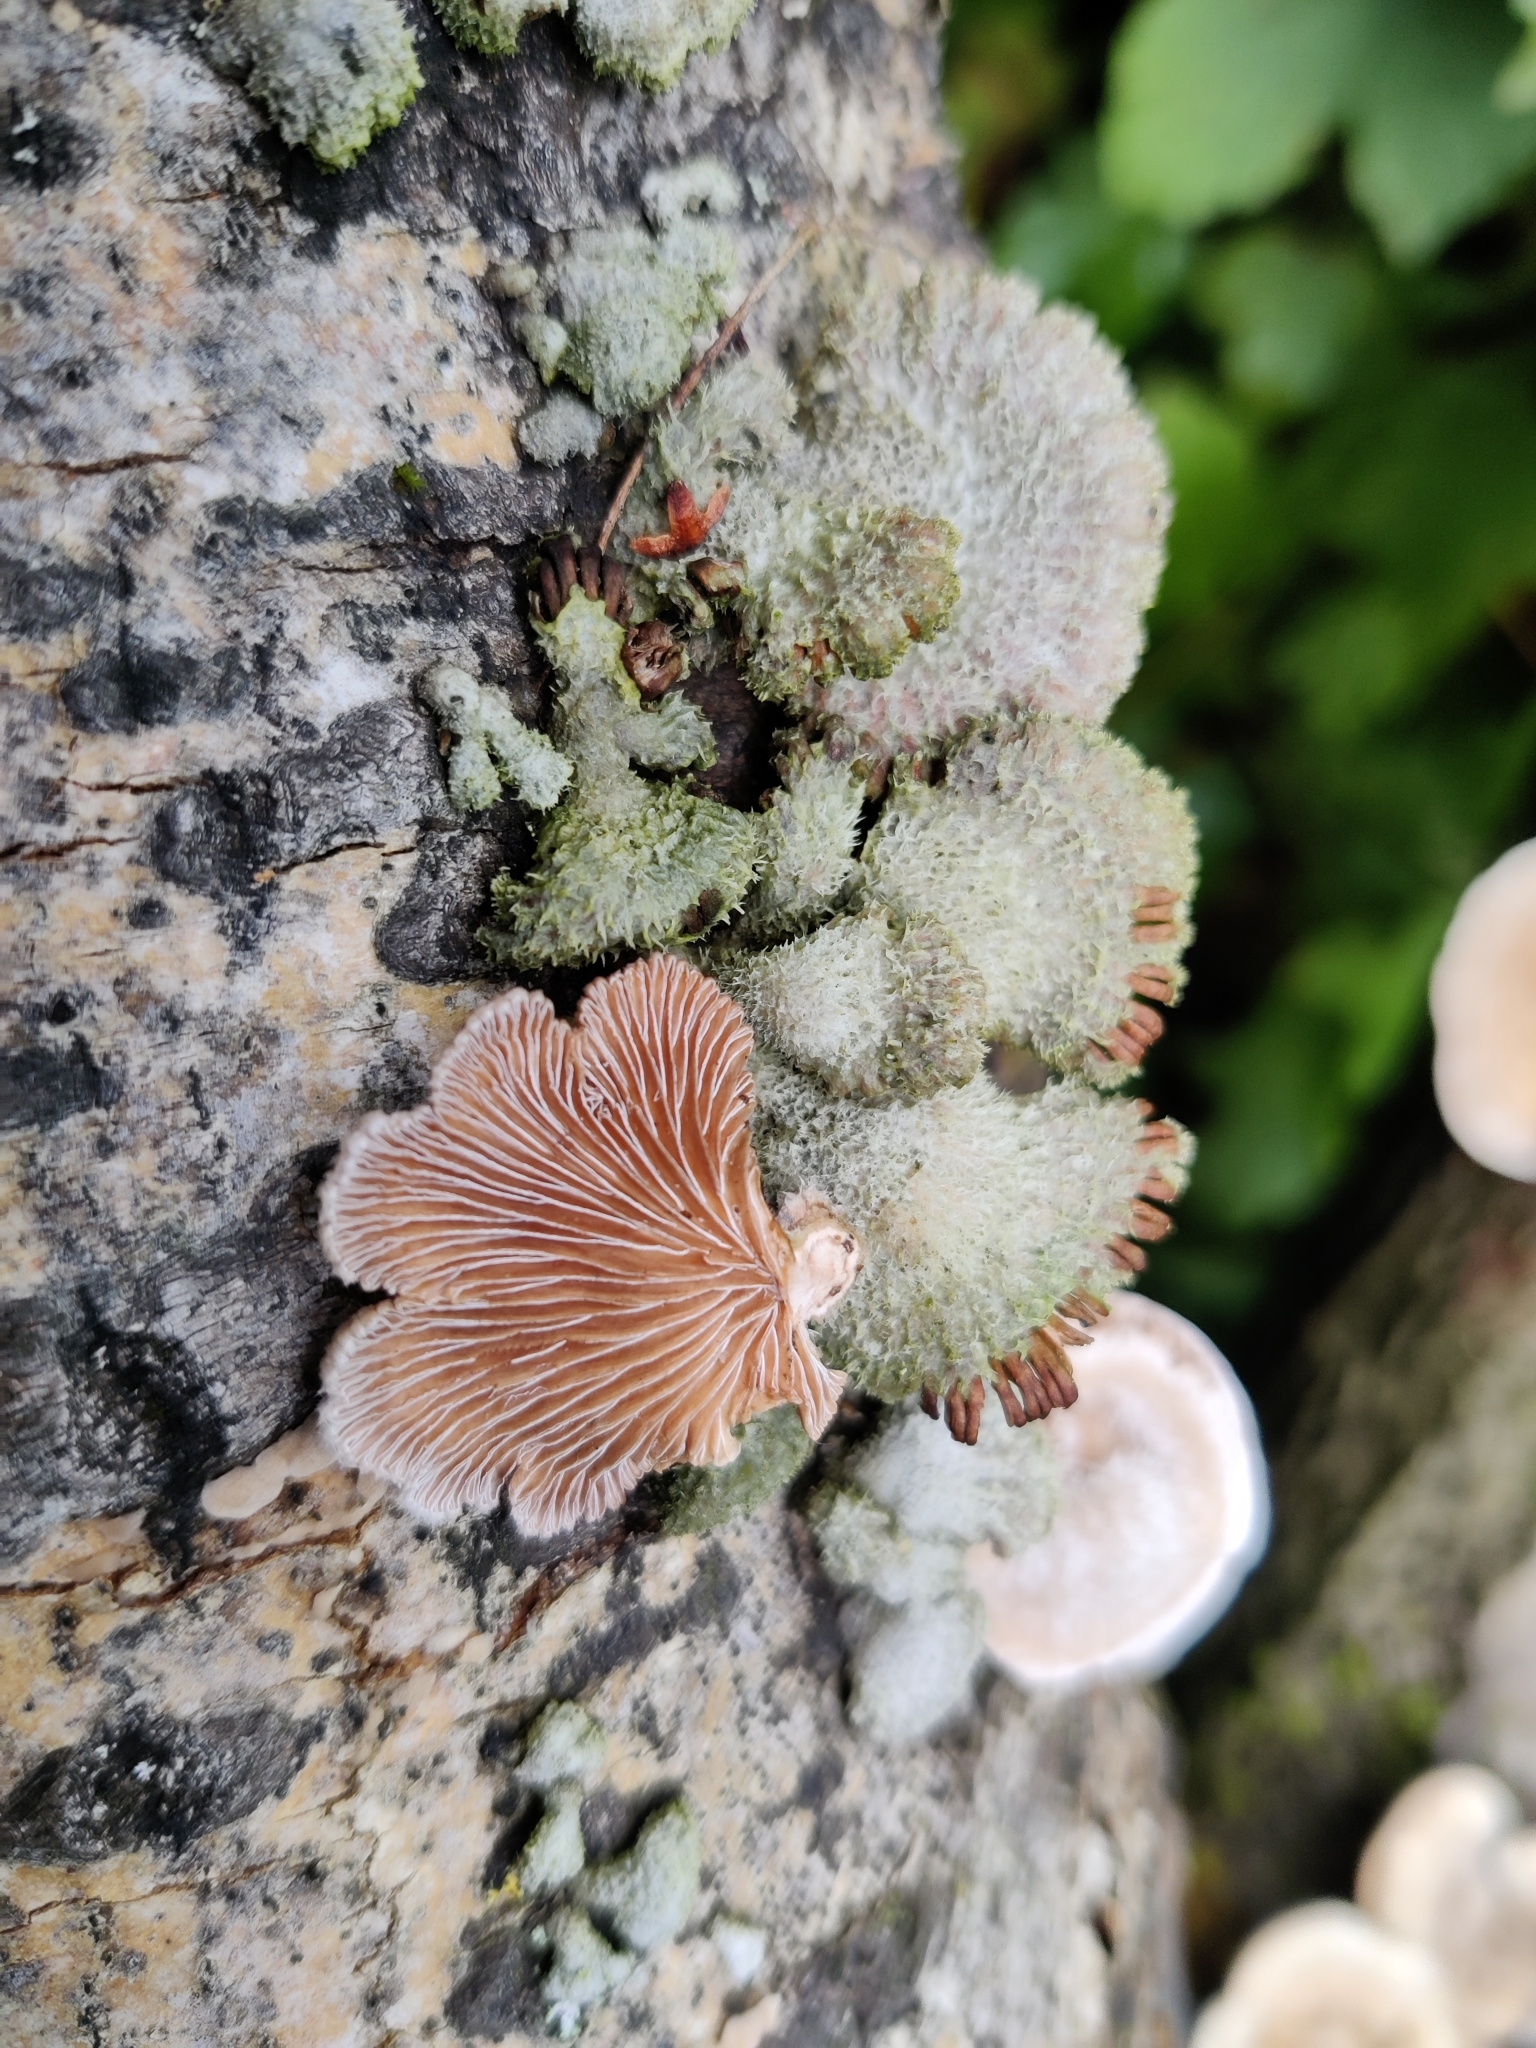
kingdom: Fungi
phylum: Basidiomycota
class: Agaricomycetes
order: Agaricales
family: Schizophyllaceae
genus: Schizophyllum
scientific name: Schizophyllum commune
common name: Common porecrust
